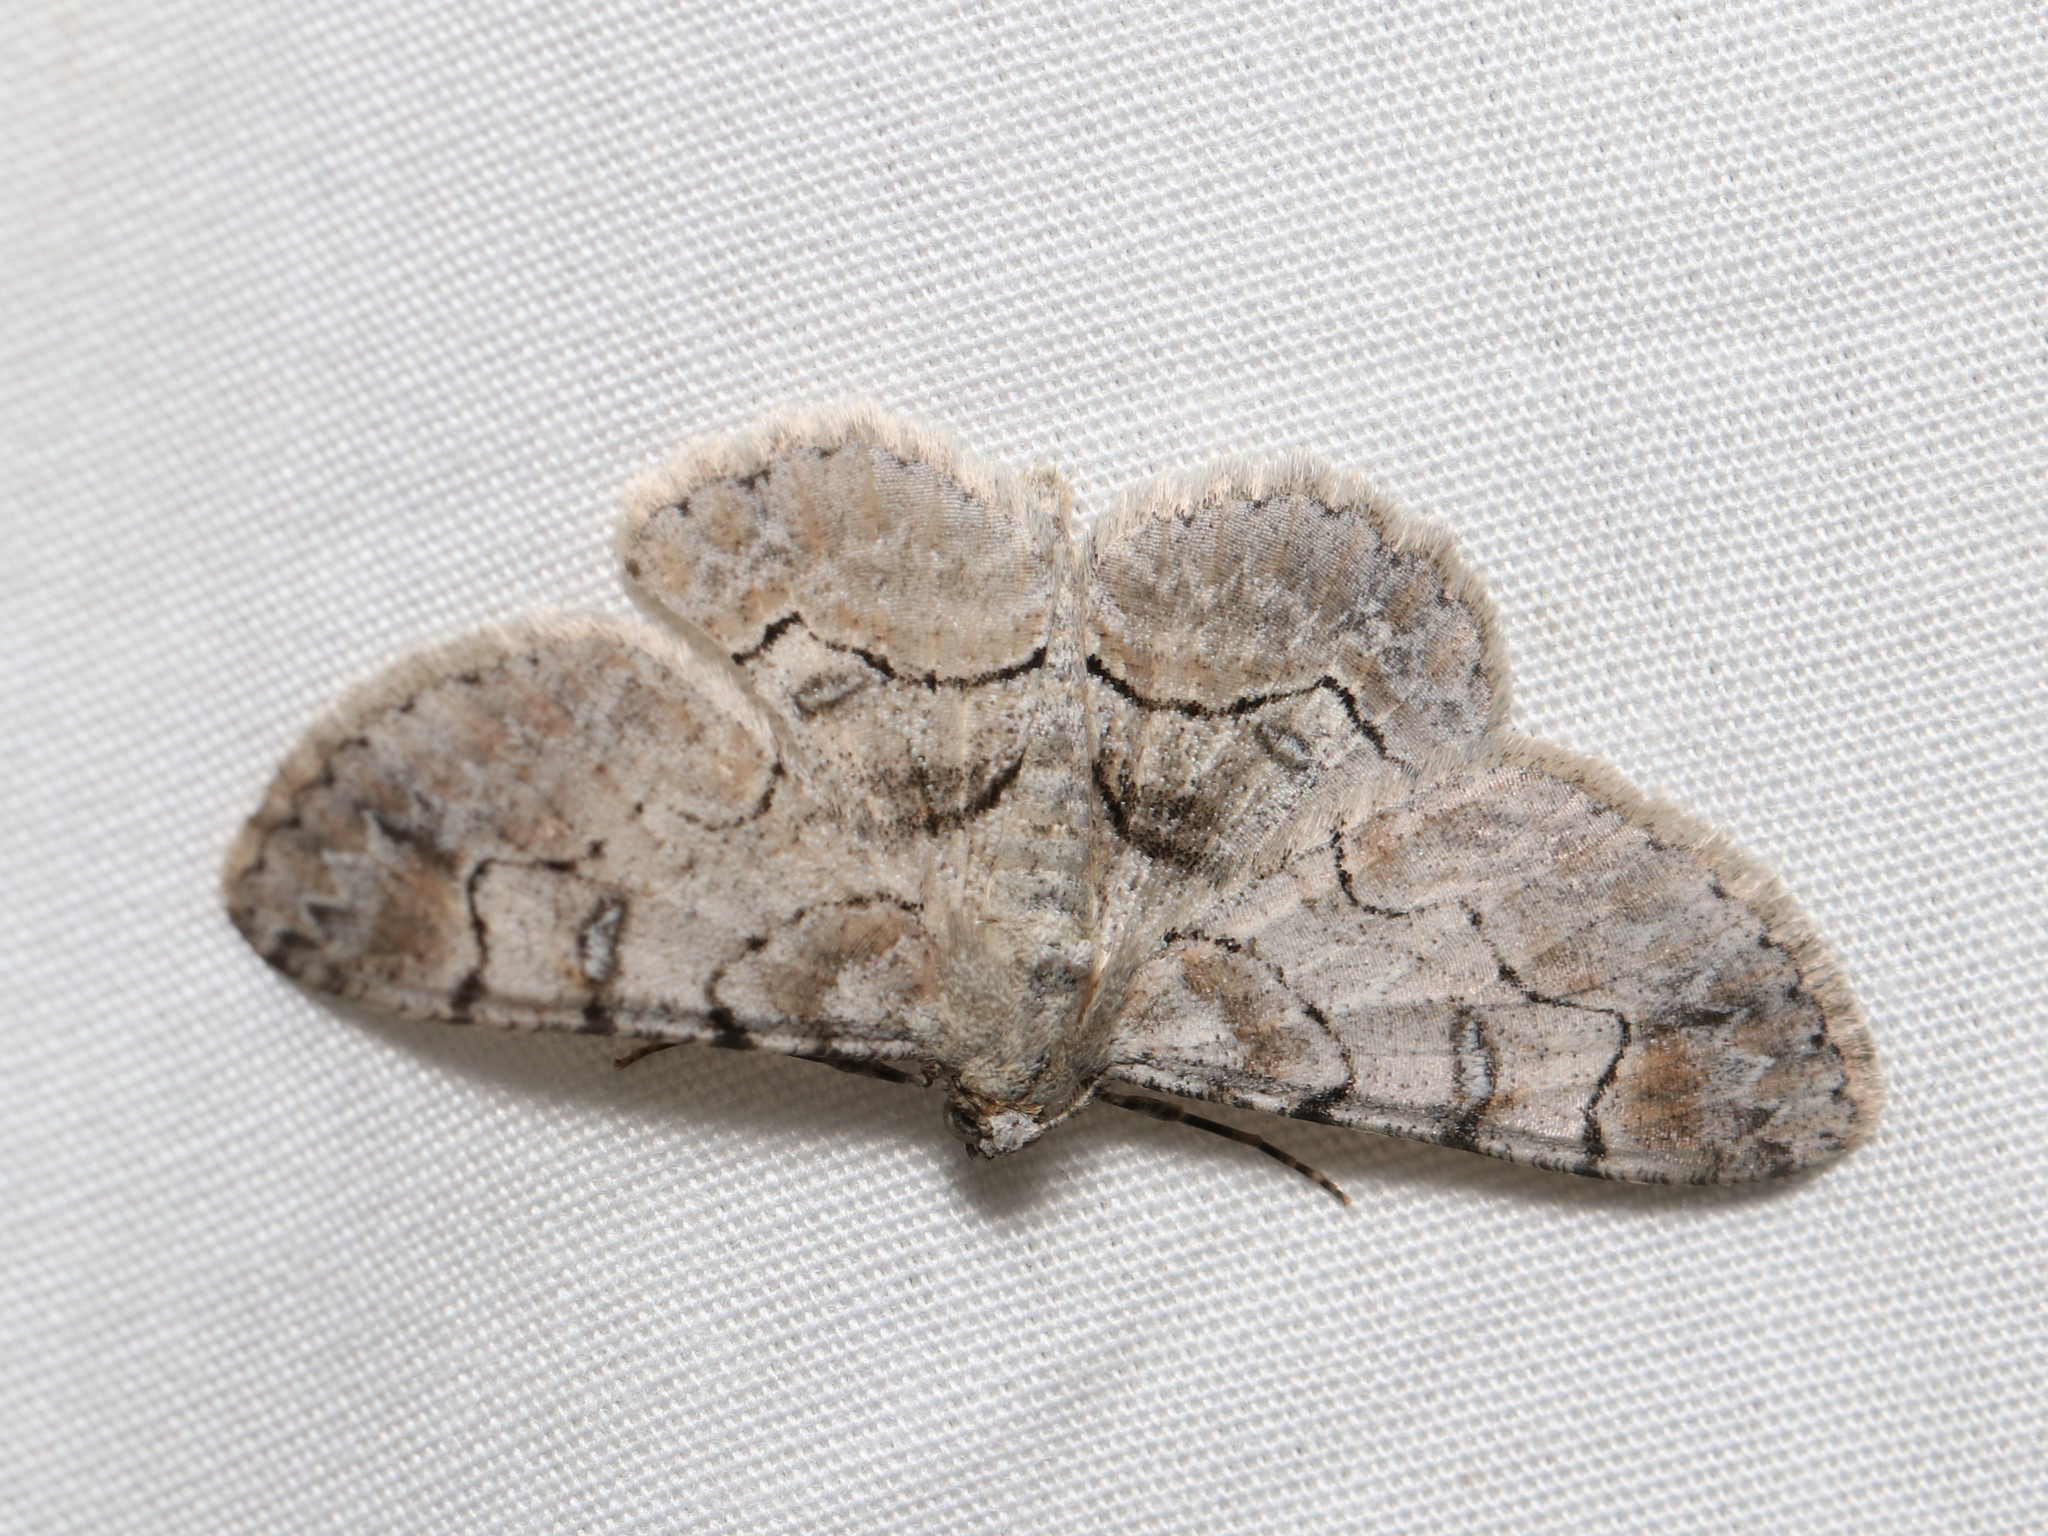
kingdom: Animalia
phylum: Arthropoda
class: Insecta
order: Lepidoptera
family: Geometridae
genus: Iridopsis
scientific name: Iridopsis larvaria
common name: Bent-line gray
